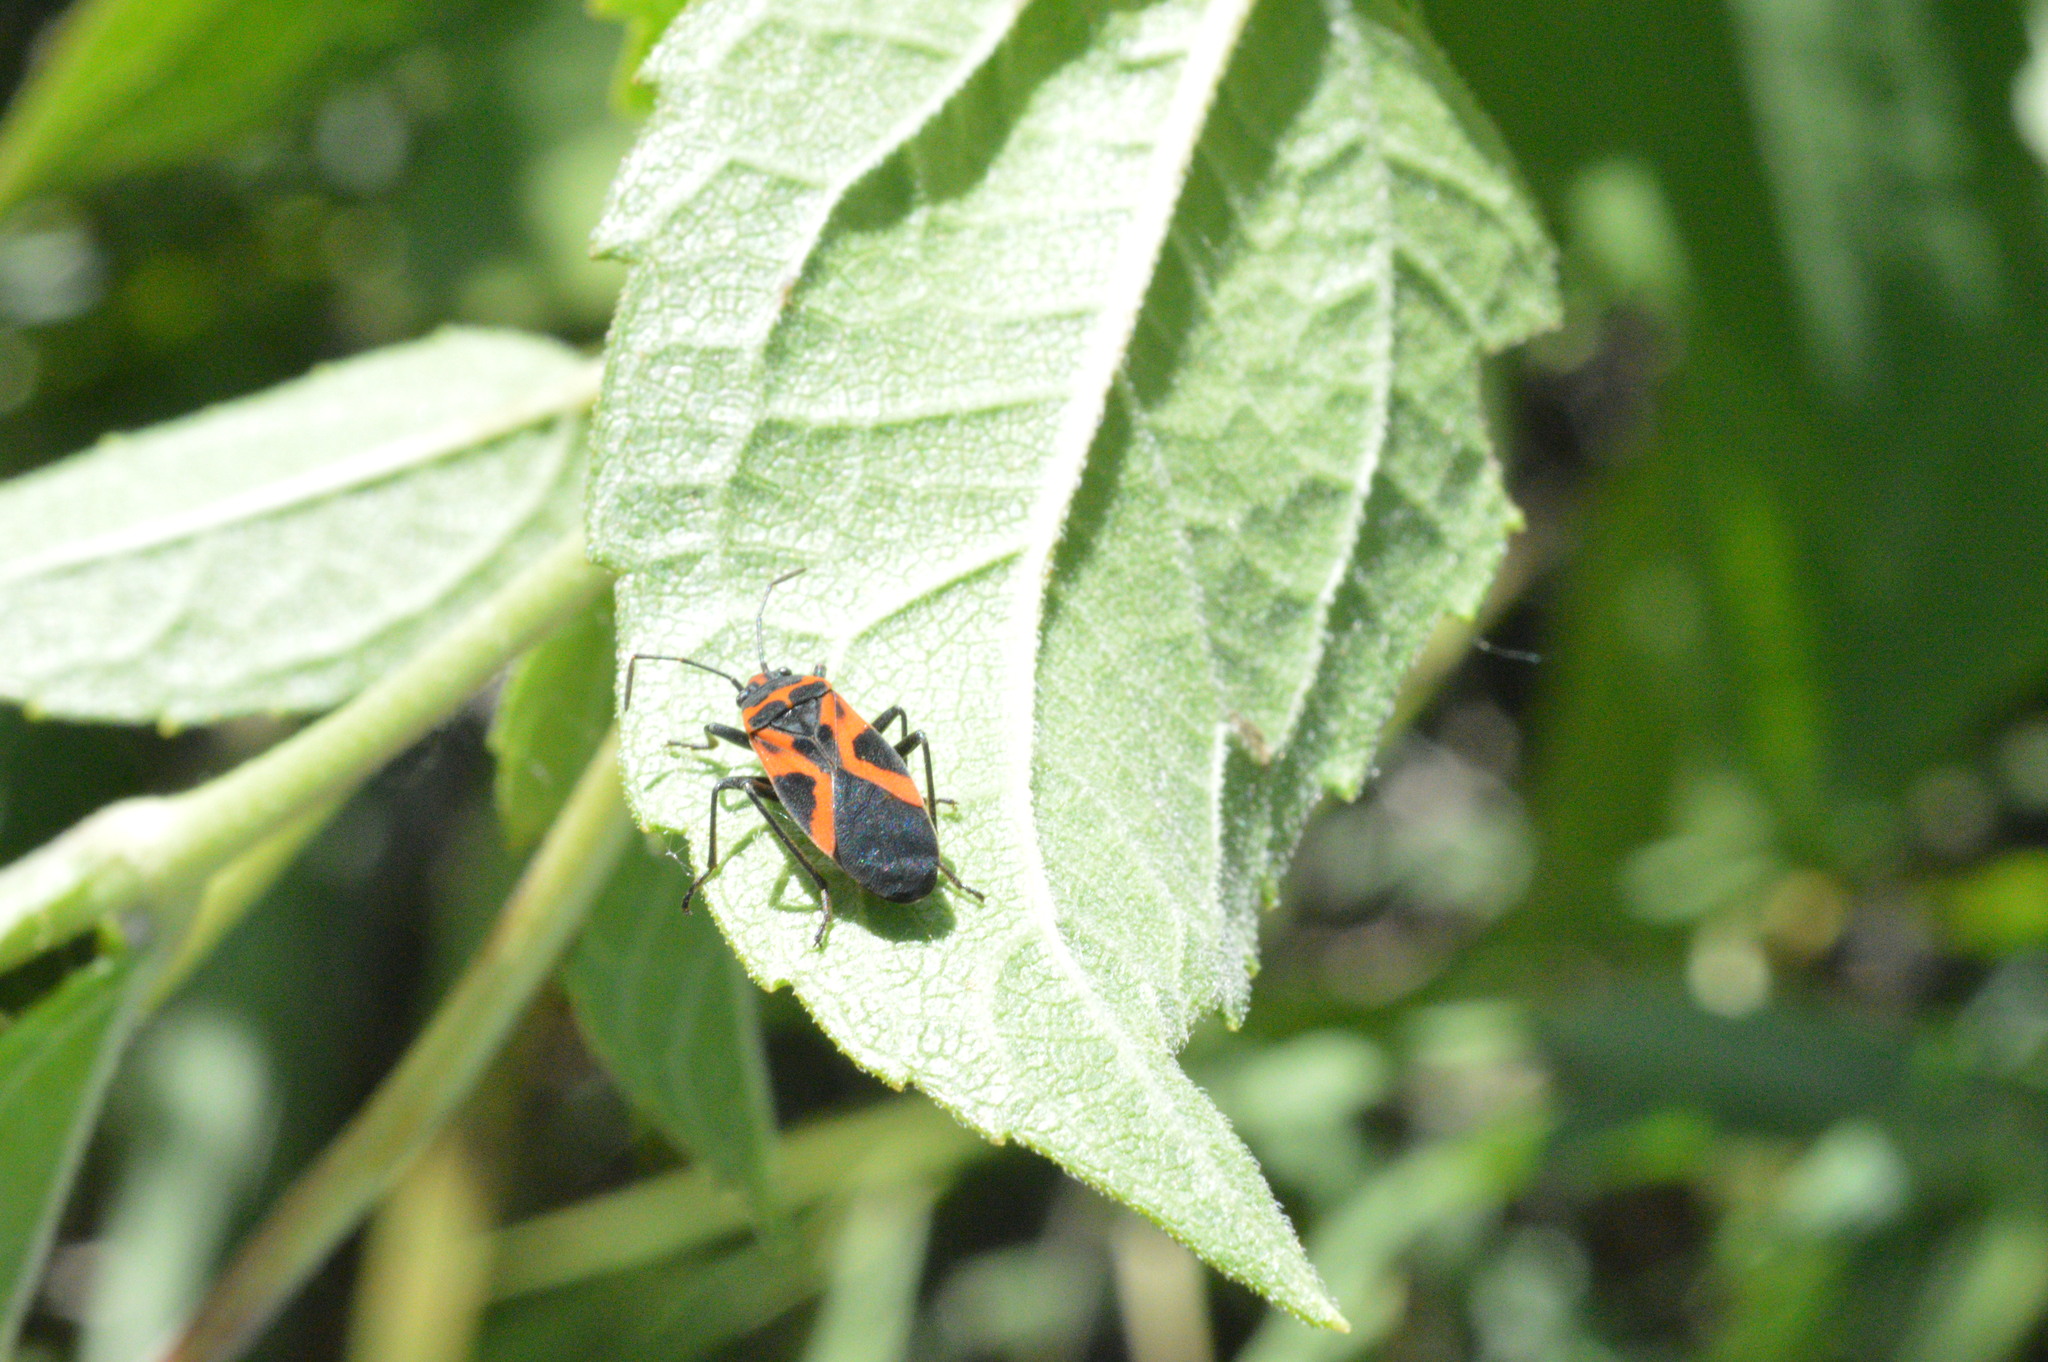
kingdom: Animalia
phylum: Arthropoda
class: Insecta
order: Hemiptera
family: Lygaeidae
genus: Lygaeus
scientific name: Lygaeus turcicus
